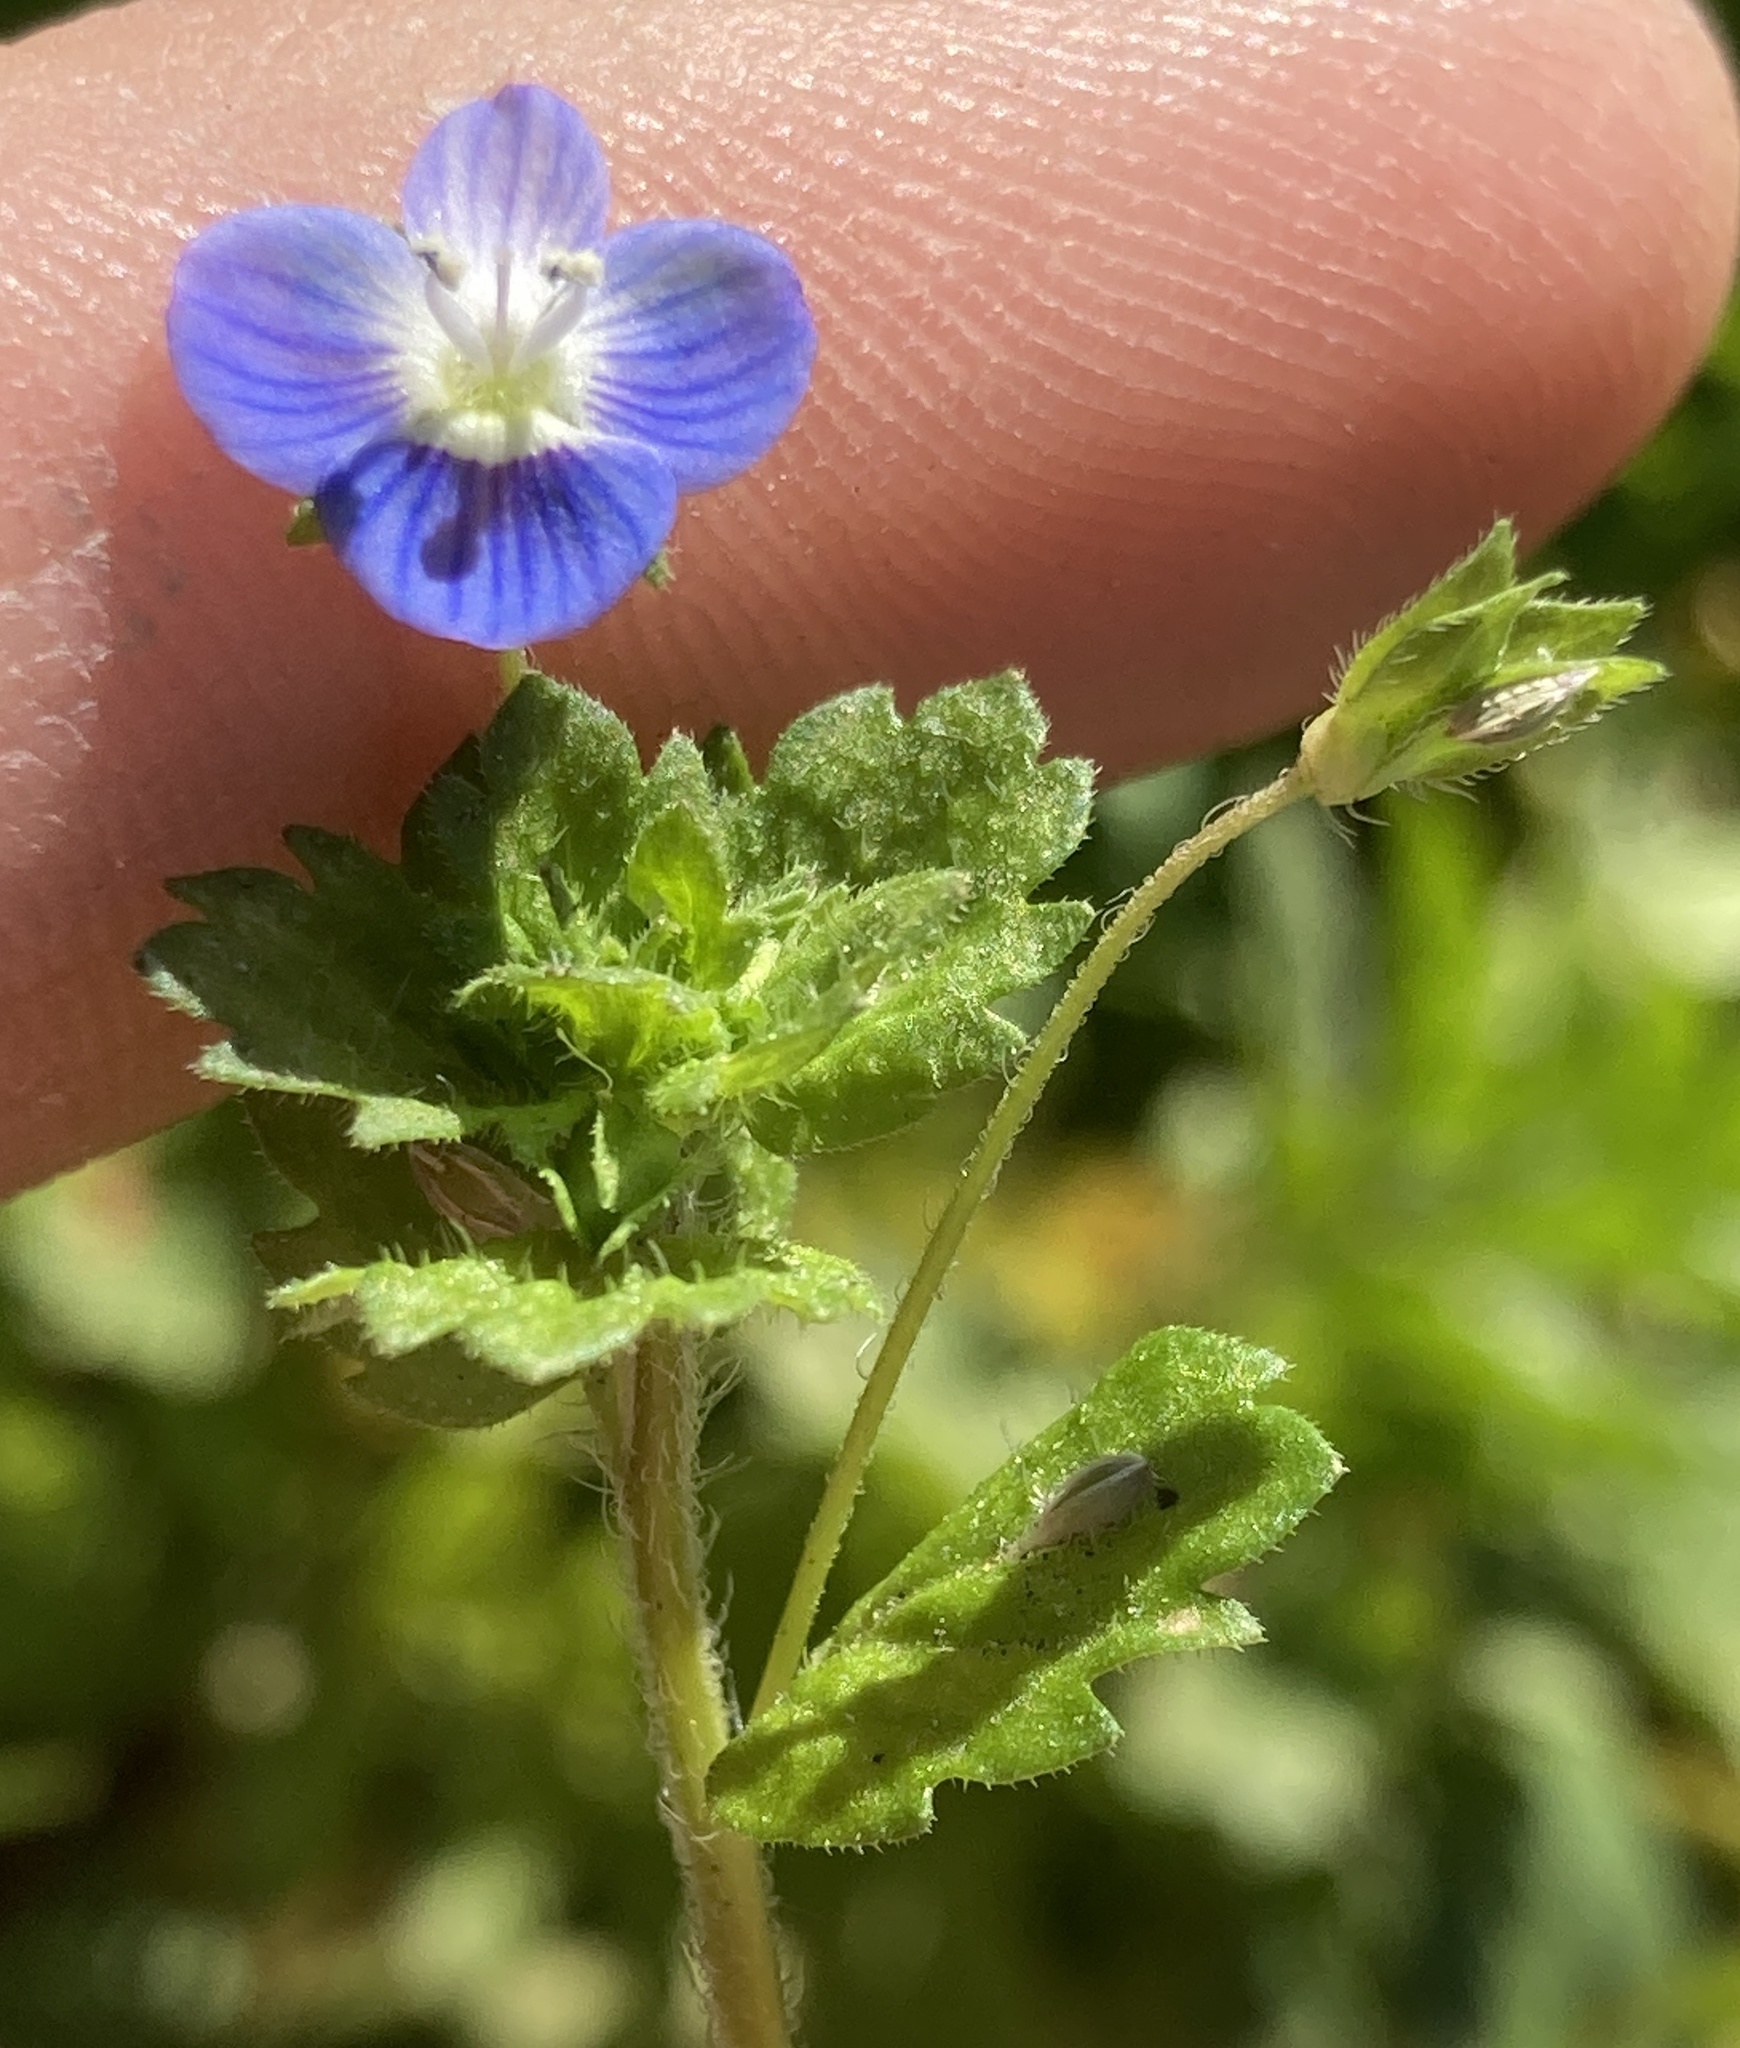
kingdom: Plantae
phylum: Tracheophyta
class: Magnoliopsida
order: Lamiales
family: Plantaginaceae
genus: Veronica
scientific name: Veronica persica
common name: Common field-speedwell
